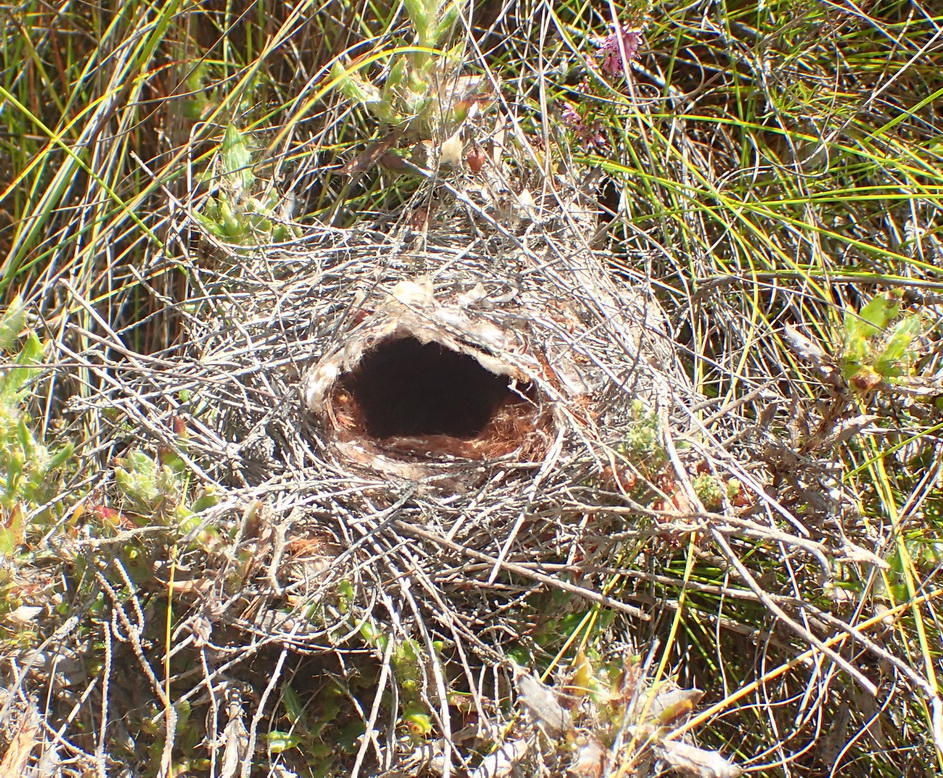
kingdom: Animalia
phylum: Chordata
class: Aves
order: Passeriformes
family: Nectariniidae
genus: Anthobaphes
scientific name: Anthobaphes violacea
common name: Orange-breasted sunbird
